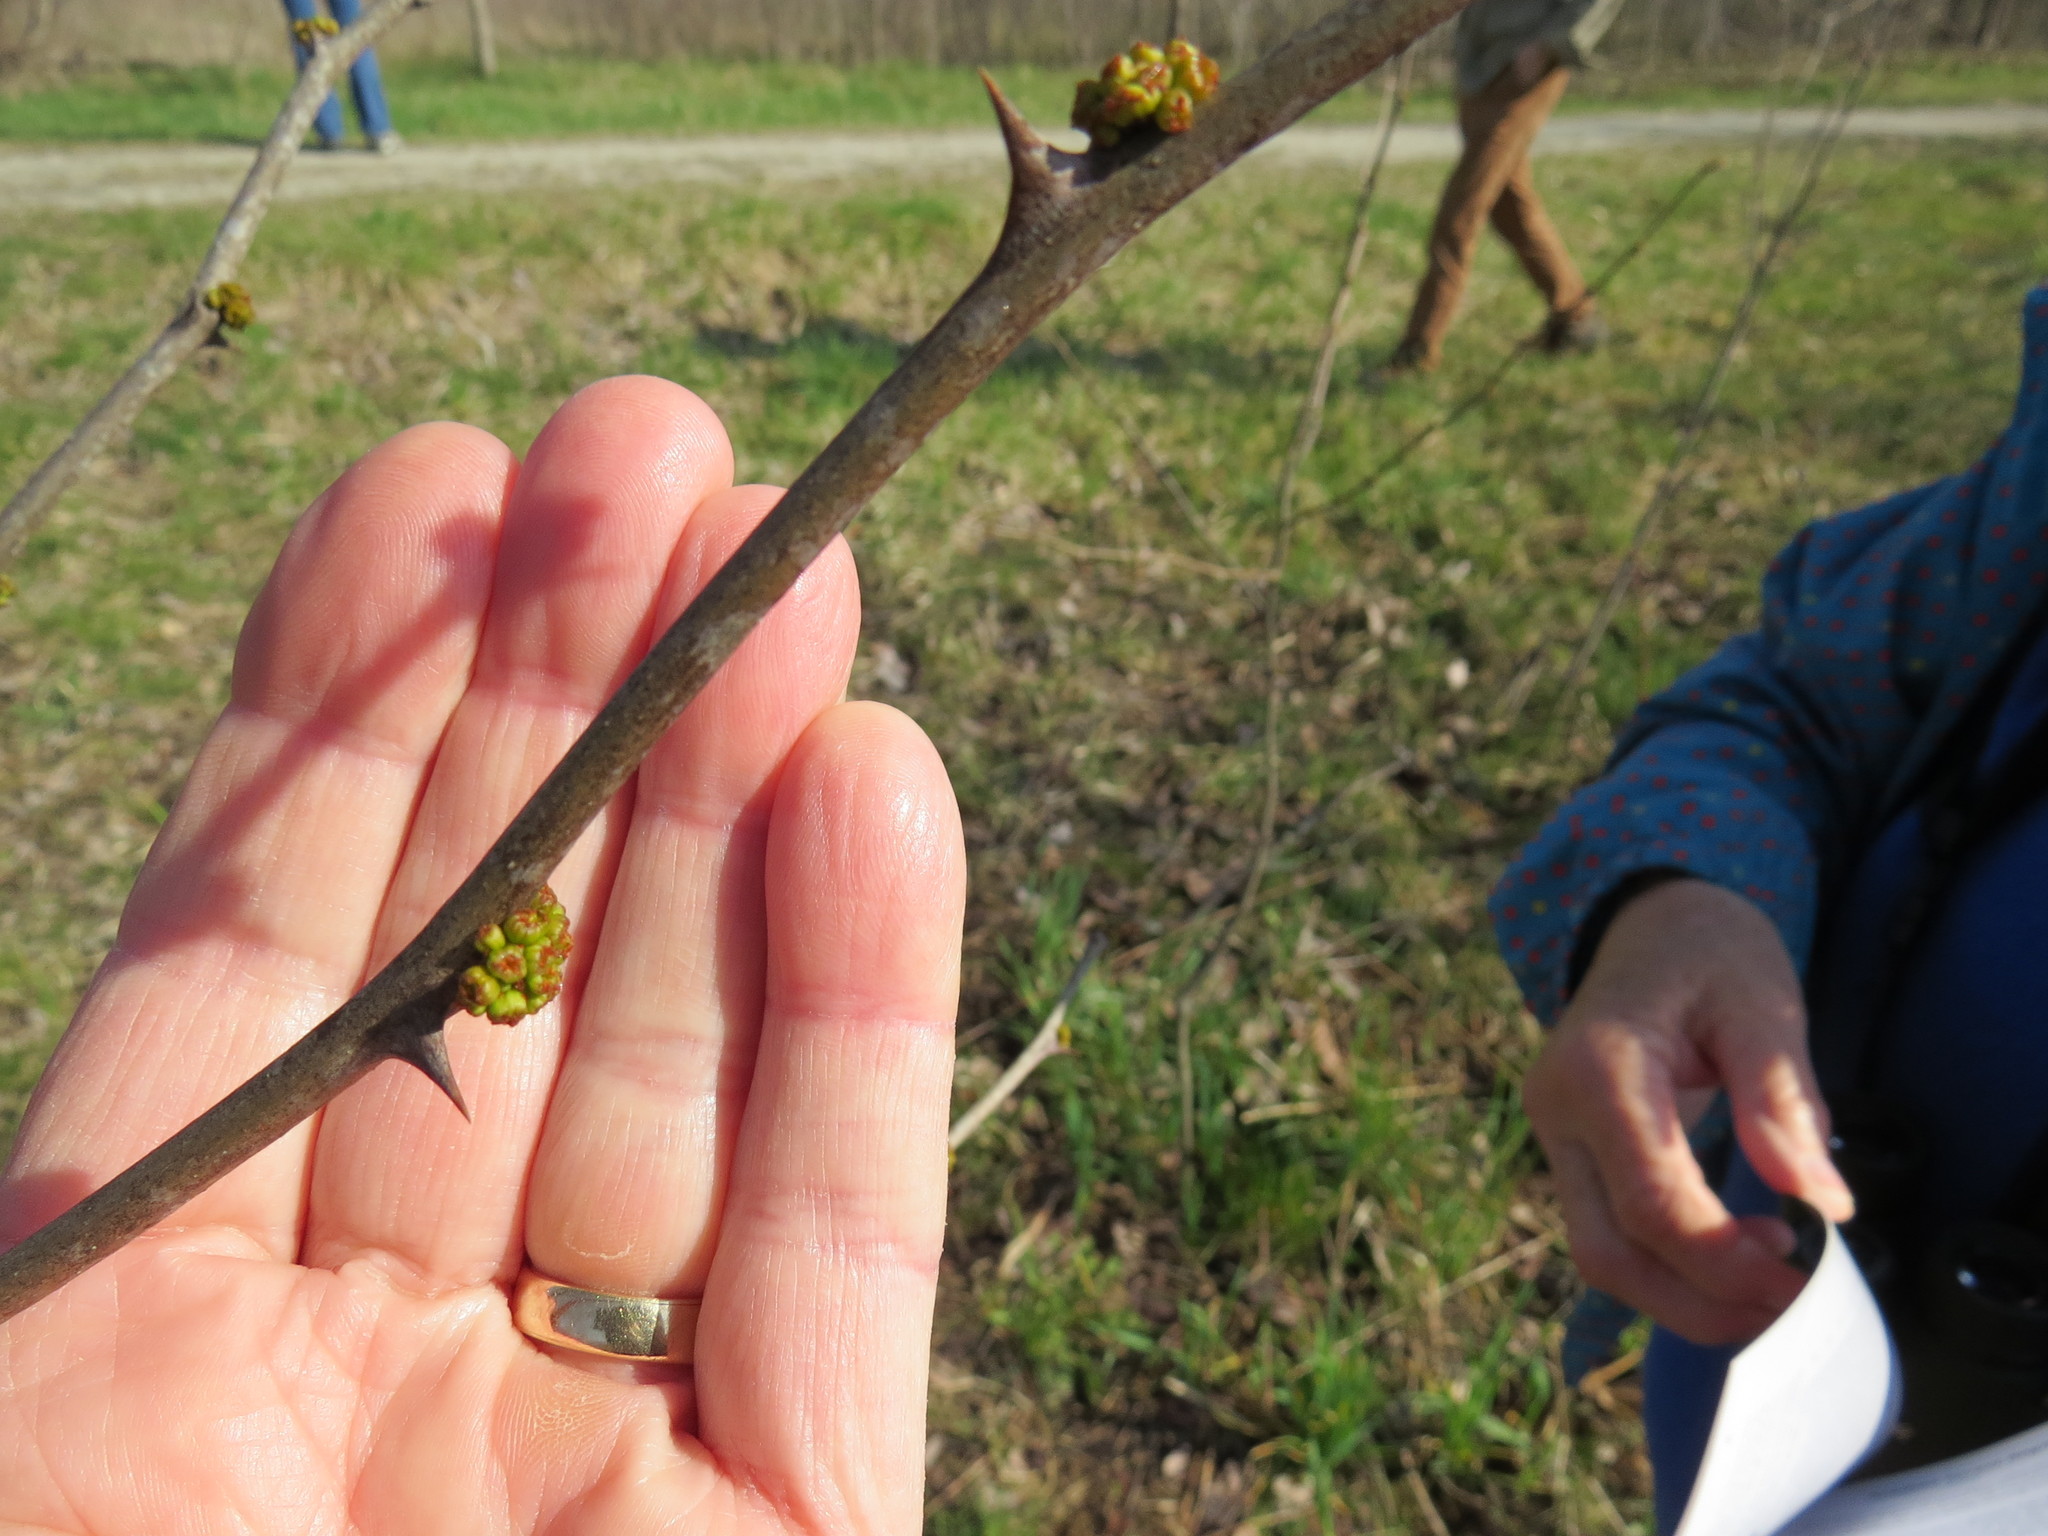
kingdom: Plantae
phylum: Tracheophyta
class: Magnoliopsida
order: Sapindales
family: Rutaceae
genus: Zanthoxylum
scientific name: Zanthoxylum americanum
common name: Northern prickly-ash
